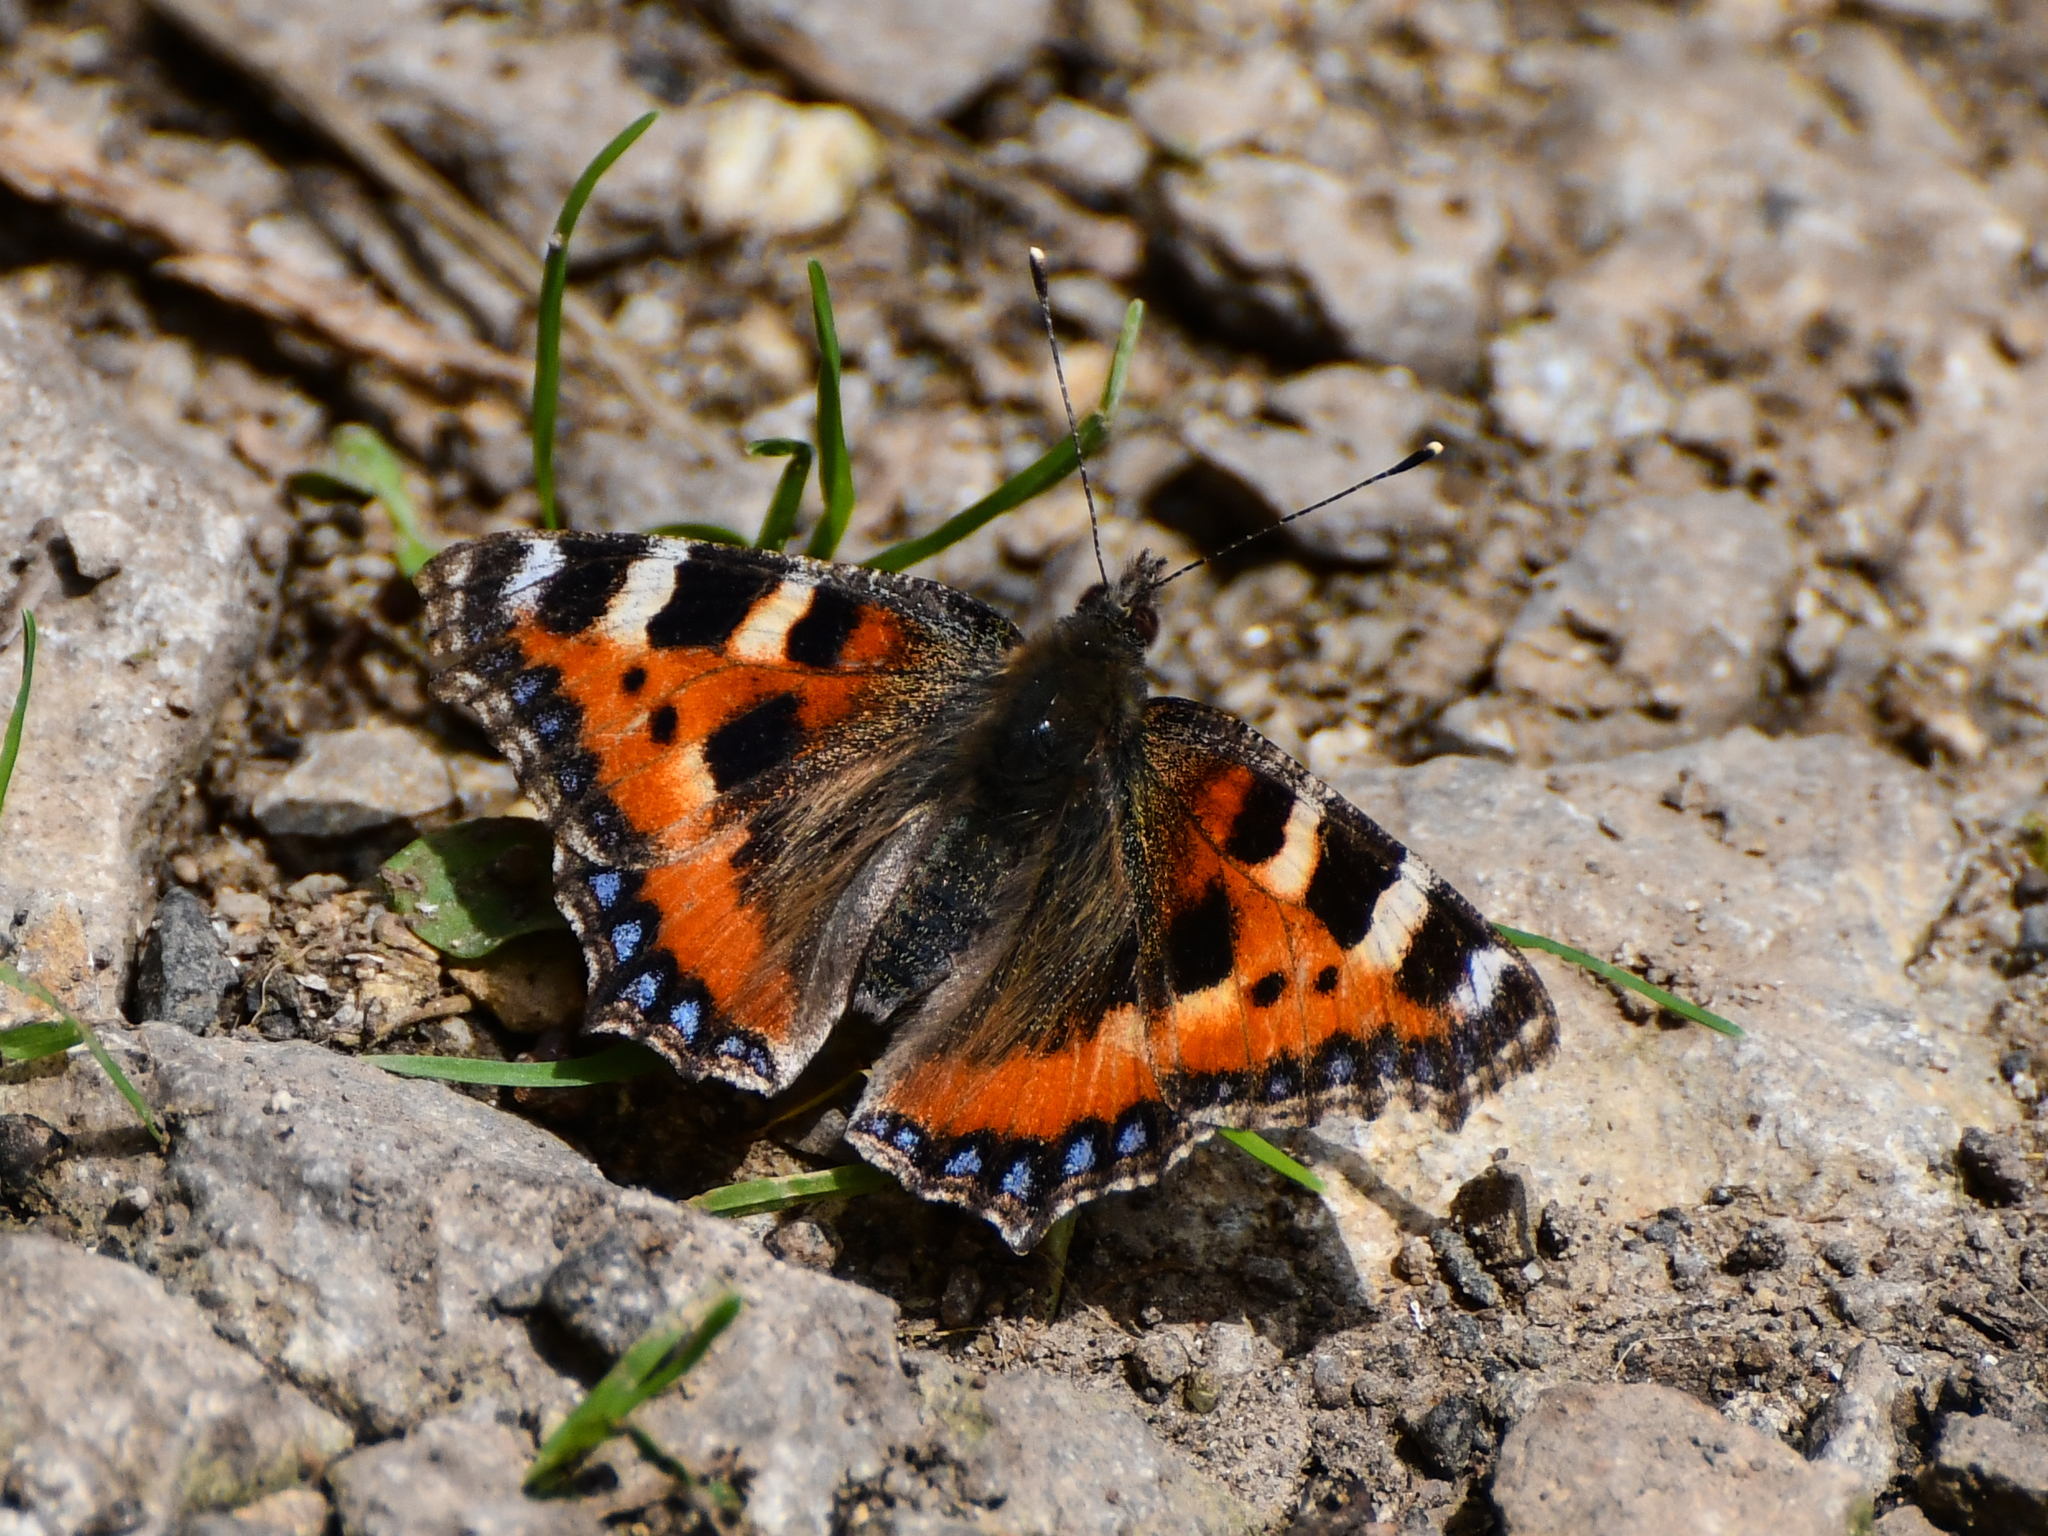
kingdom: Animalia
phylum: Arthropoda
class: Insecta
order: Lepidoptera
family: Nymphalidae
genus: Aglais
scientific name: Aglais urticae
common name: Small tortoiseshell
